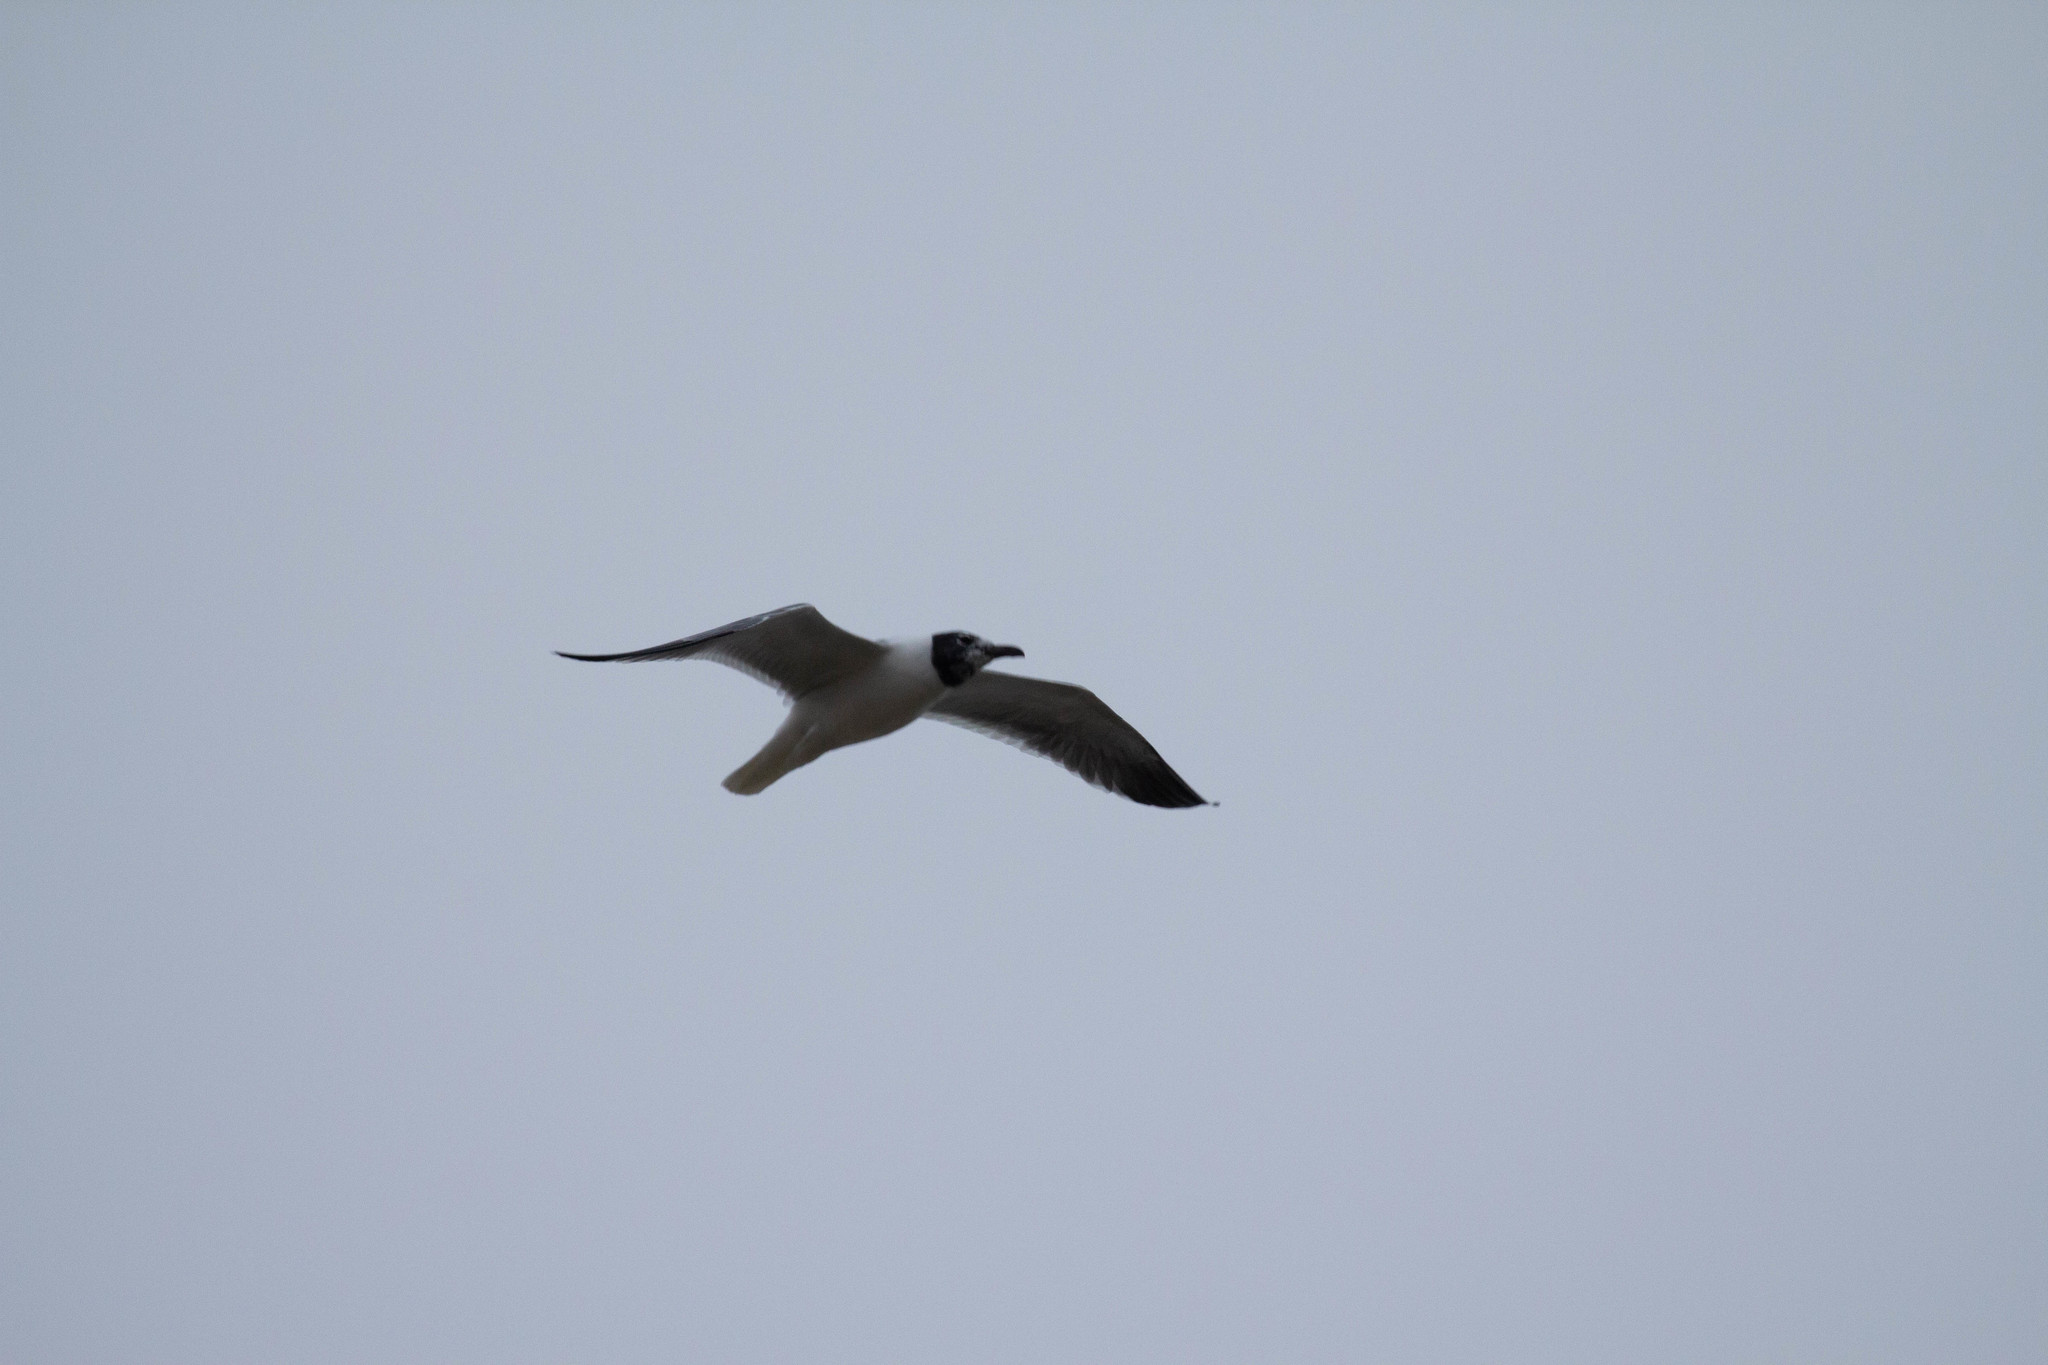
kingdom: Animalia
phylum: Chordata
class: Aves
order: Charadriiformes
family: Laridae
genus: Leucophaeus
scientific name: Leucophaeus atricilla
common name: Laughing gull
